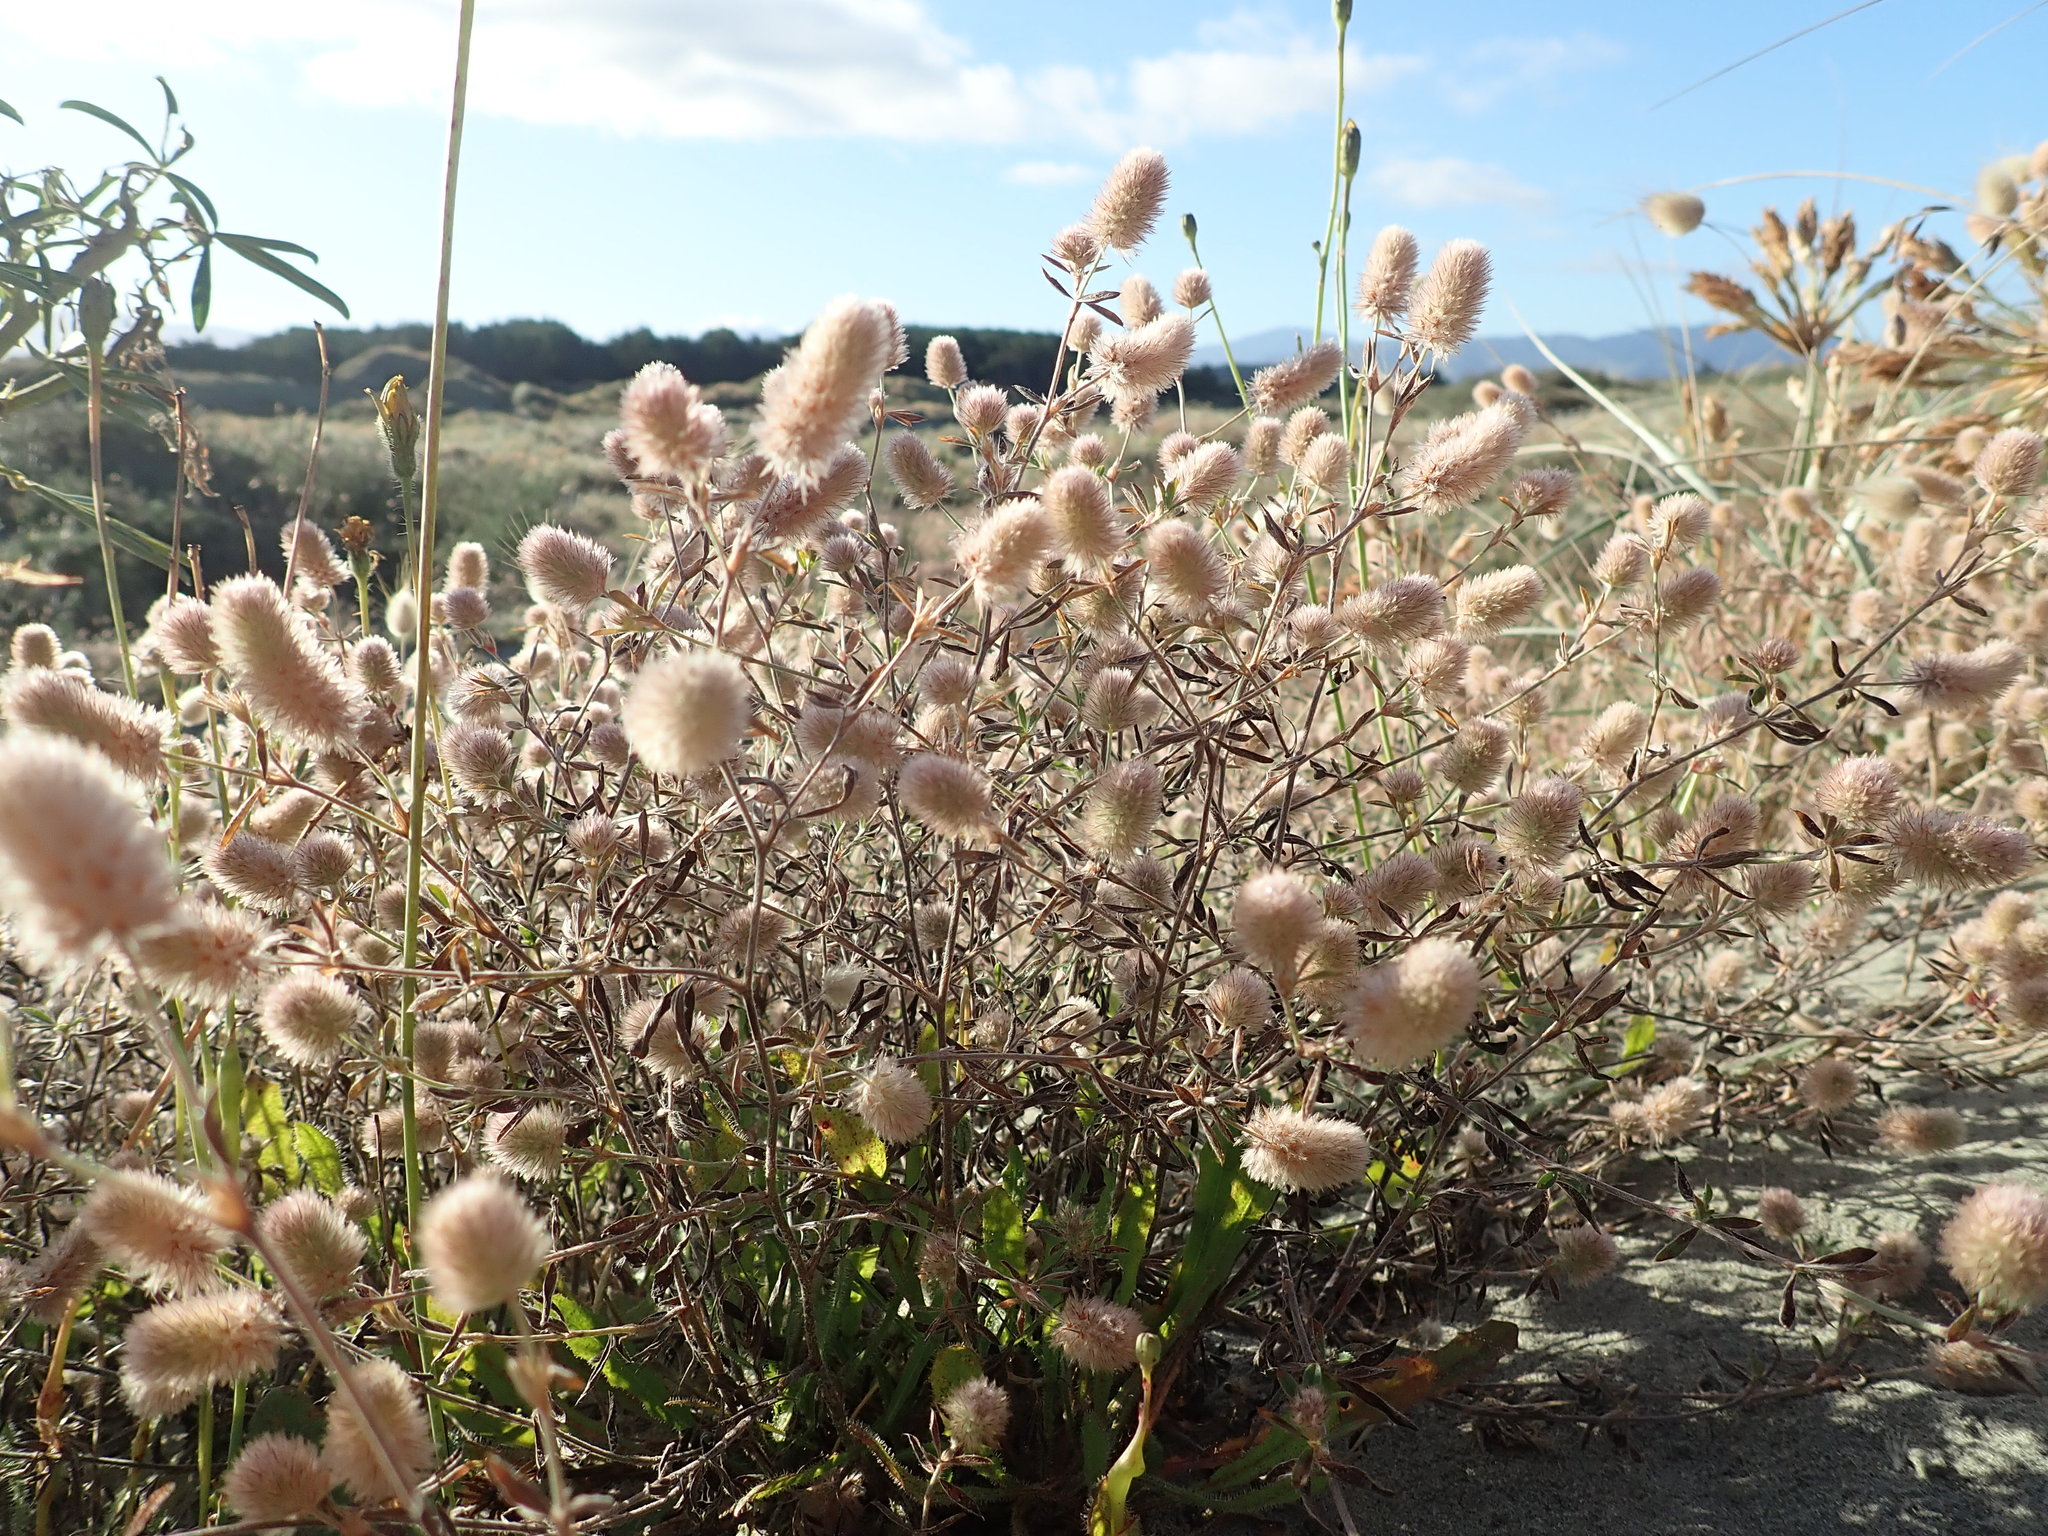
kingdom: Plantae
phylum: Tracheophyta
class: Magnoliopsida
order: Fabales
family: Fabaceae
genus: Trifolium
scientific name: Trifolium arvense
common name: Hare's-foot clover
